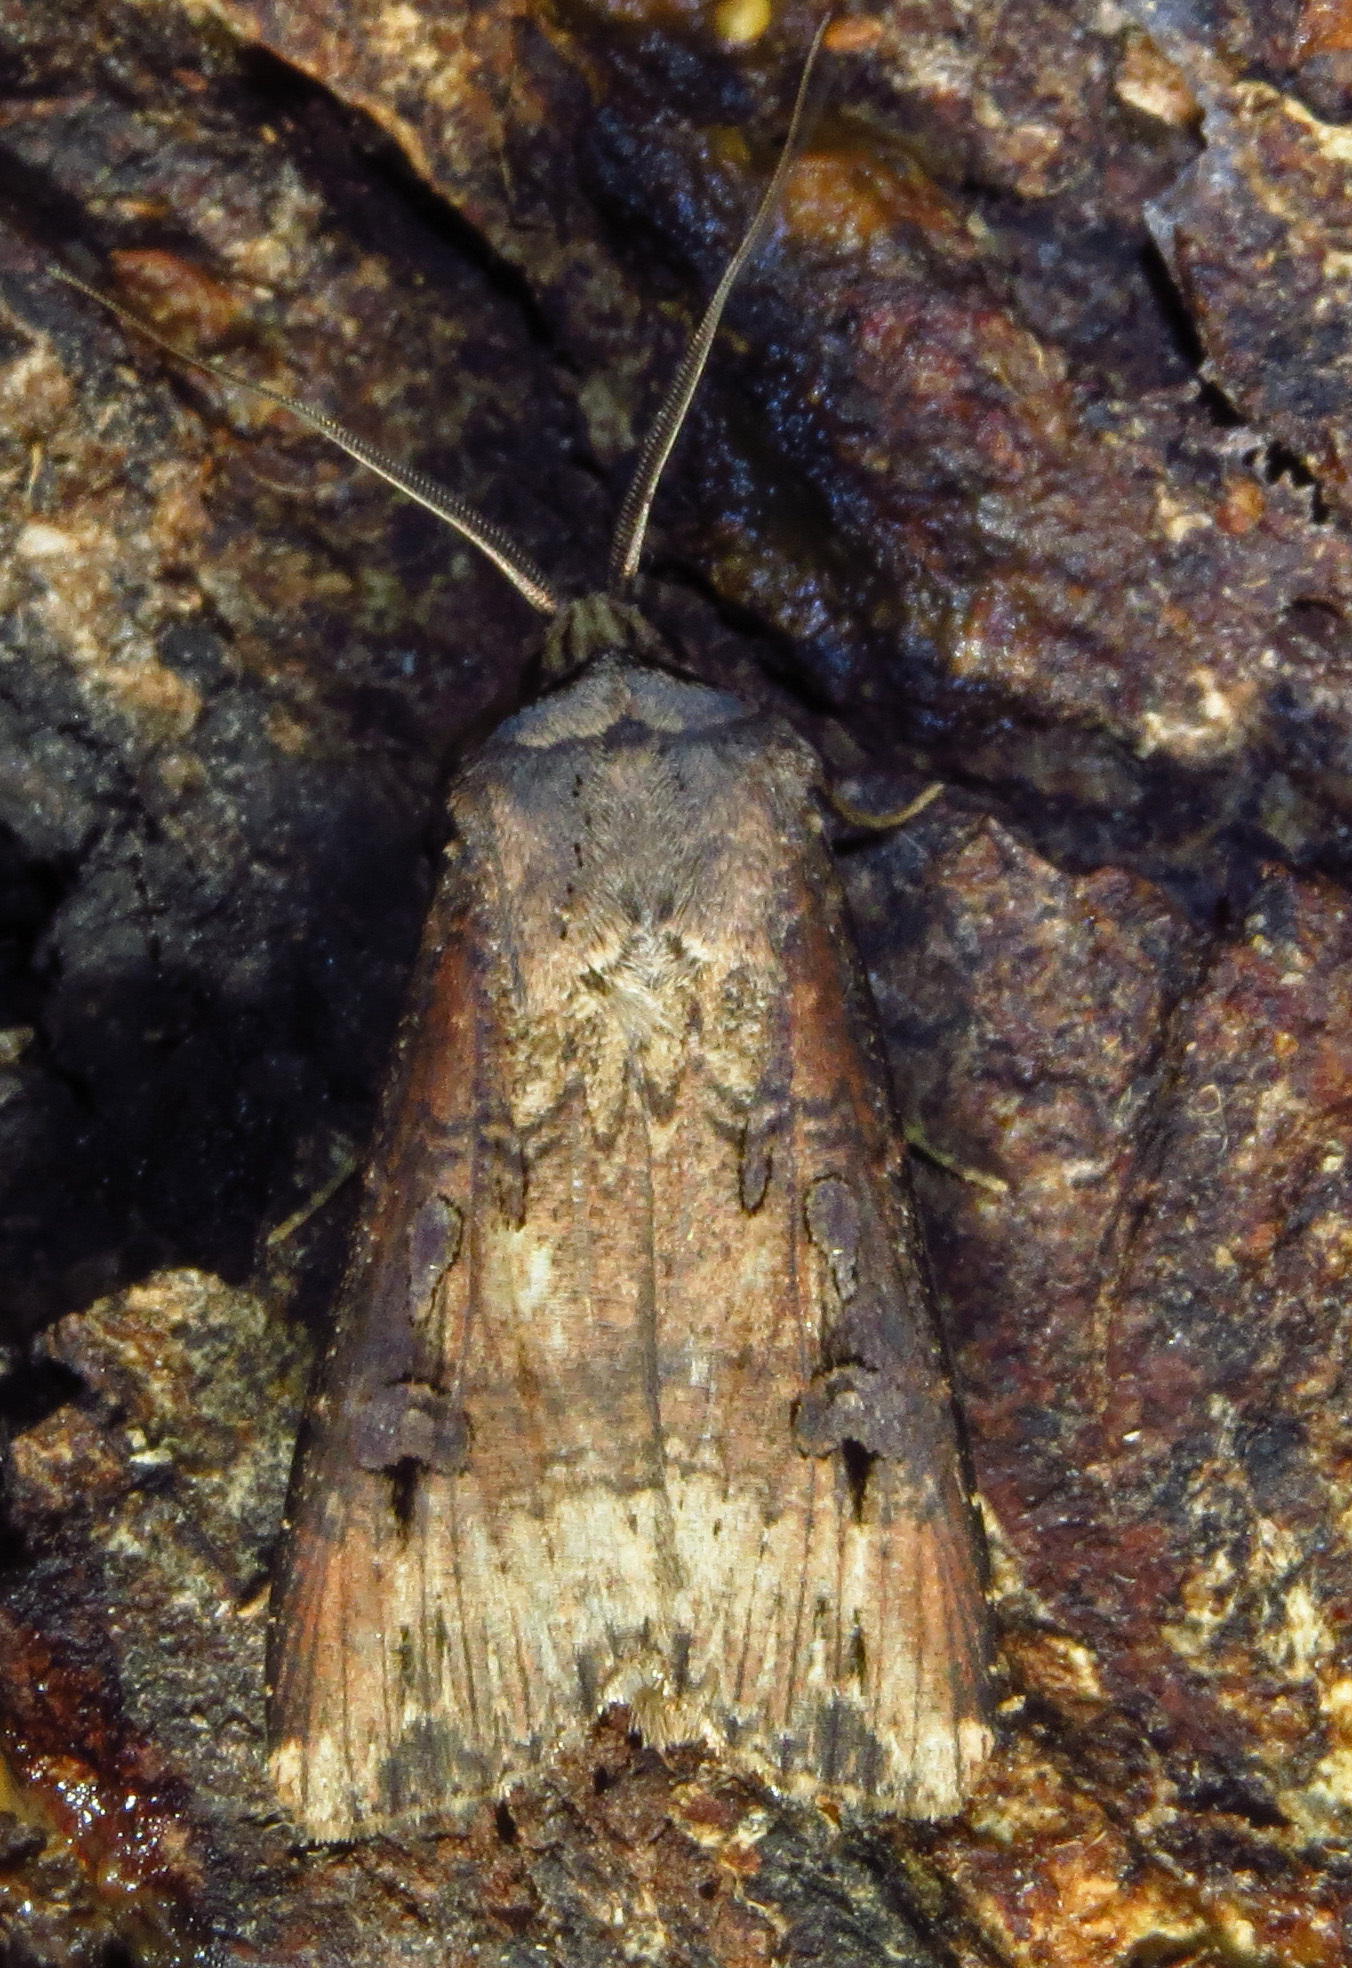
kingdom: Animalia
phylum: Arthropoda
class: Insecta
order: Lepidoptera
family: Noctuidae
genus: Agrotis
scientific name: Agrotis ipsilon
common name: Dark sword-grass
